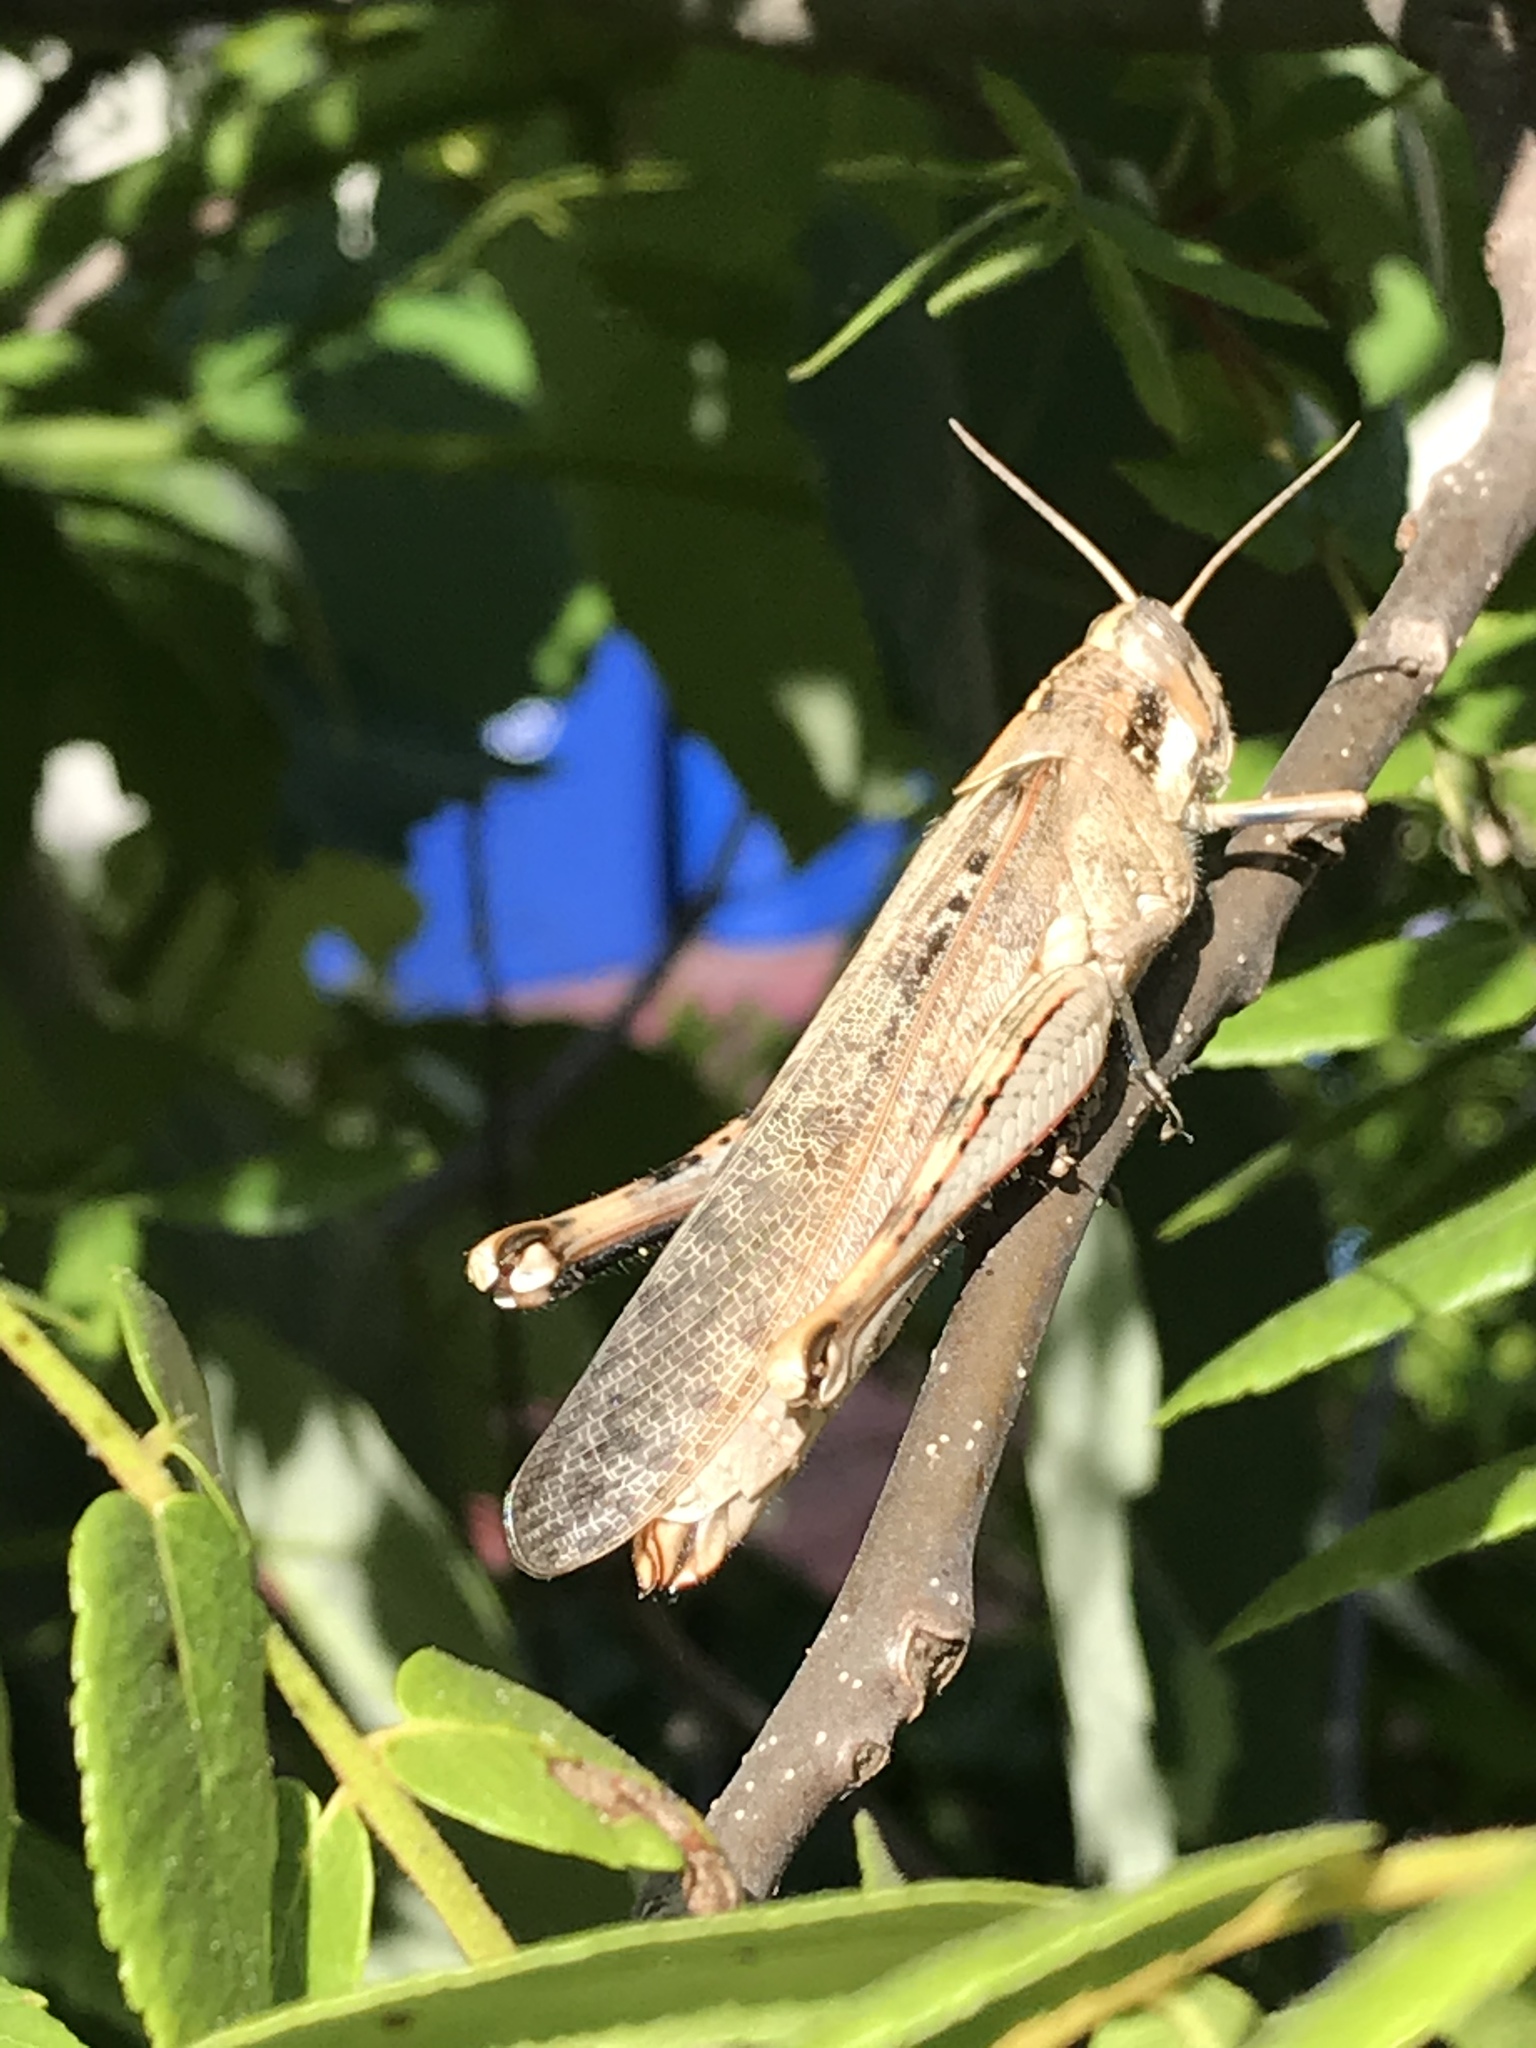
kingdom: Animalia
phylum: Arthropoda
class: Insecta
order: Orthoptera
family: Acrididae
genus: Schistocerca
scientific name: Schistocerca nitens
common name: Vagrant grasshopper
